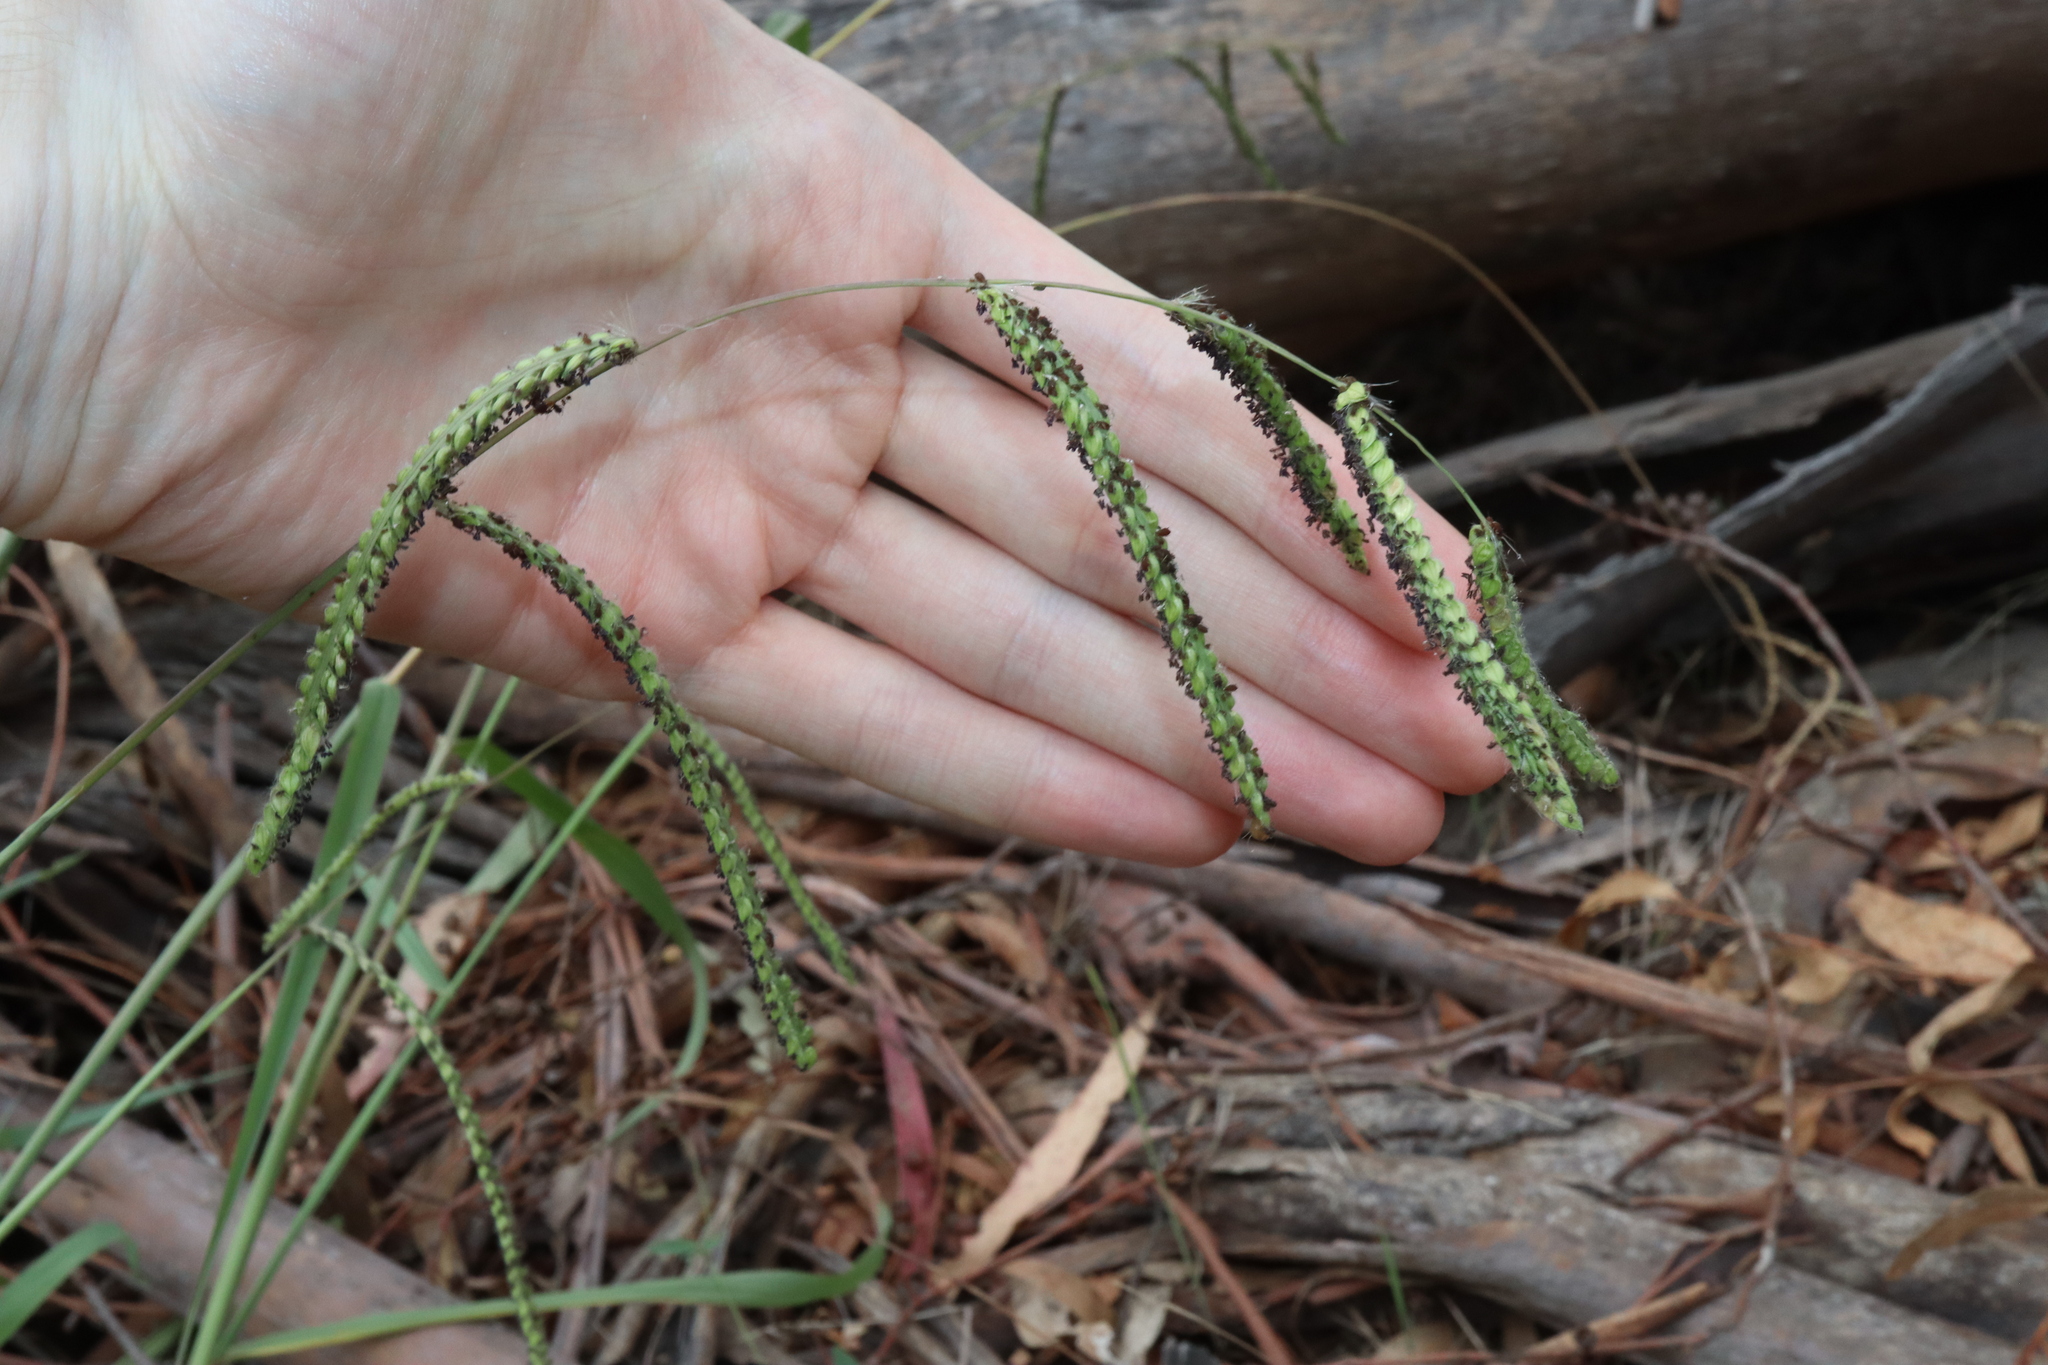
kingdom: Plantae
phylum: Tracheophyta
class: Liliopsida
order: Poales
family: Poaceae
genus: Paspalum
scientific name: Paspalum dilatatum
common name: Dallisgrass
